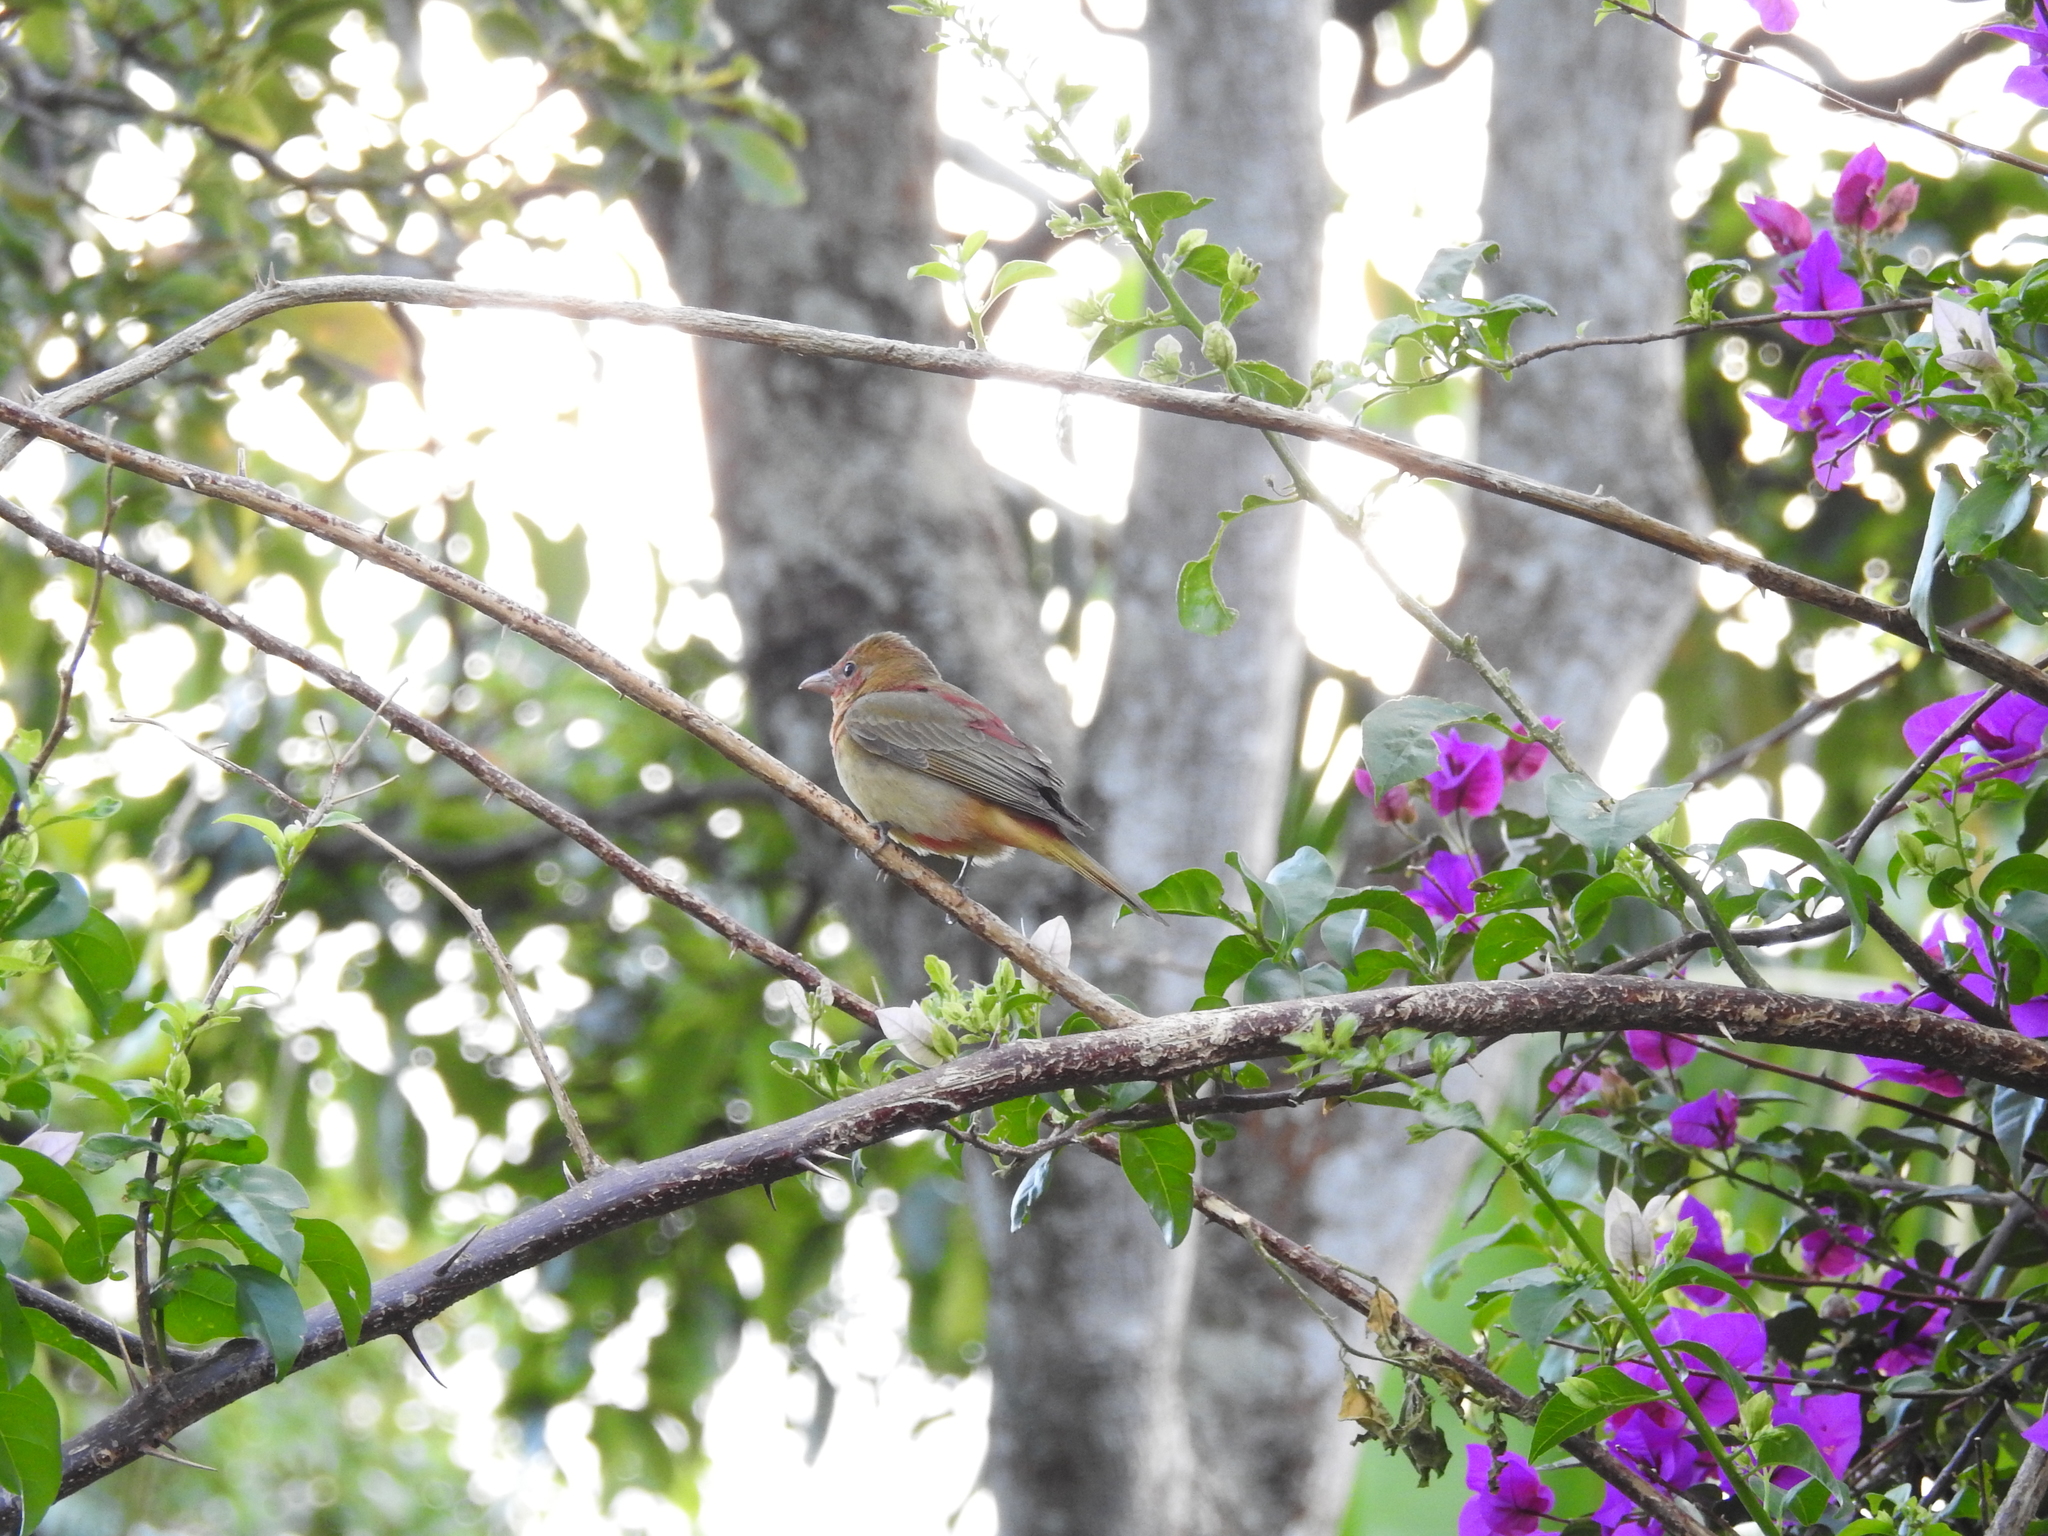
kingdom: Animalia
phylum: Chordata
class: Aves
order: Passeriformes
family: Cardinalidae
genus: Piranga
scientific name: Piranga rubra
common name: Summer tanager
